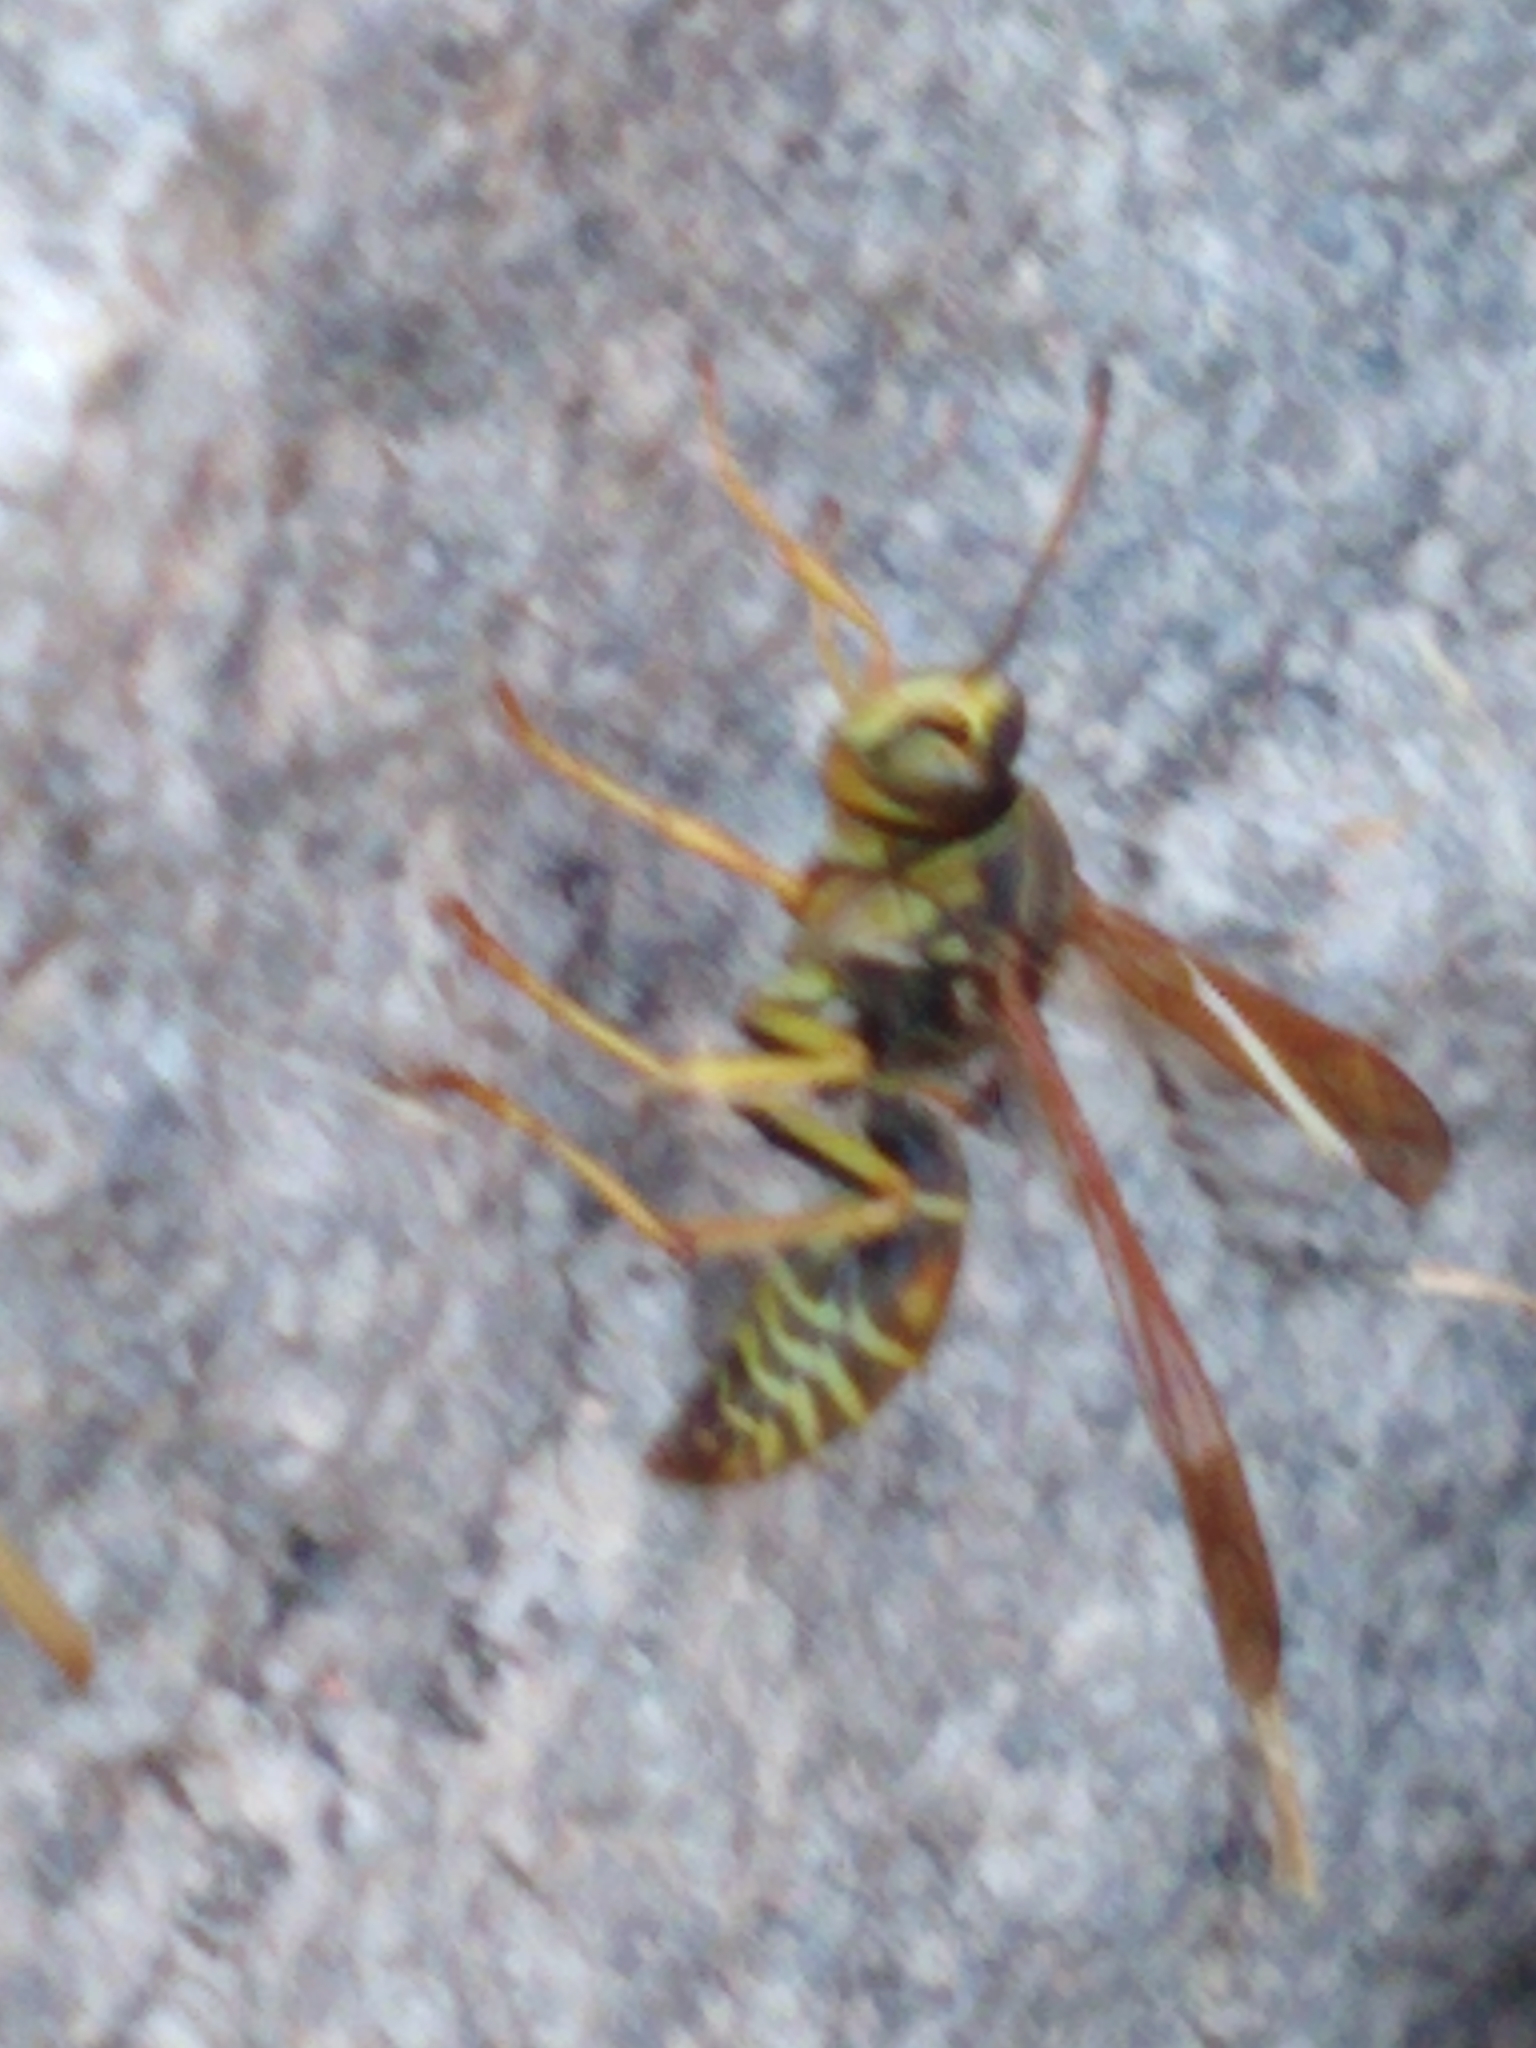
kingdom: Animalia
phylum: Arthropoda
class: Insecta
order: Hymenoptera
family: Eumenidae
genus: Polistes
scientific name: Polistes fuscatus
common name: Dark paper wasp
